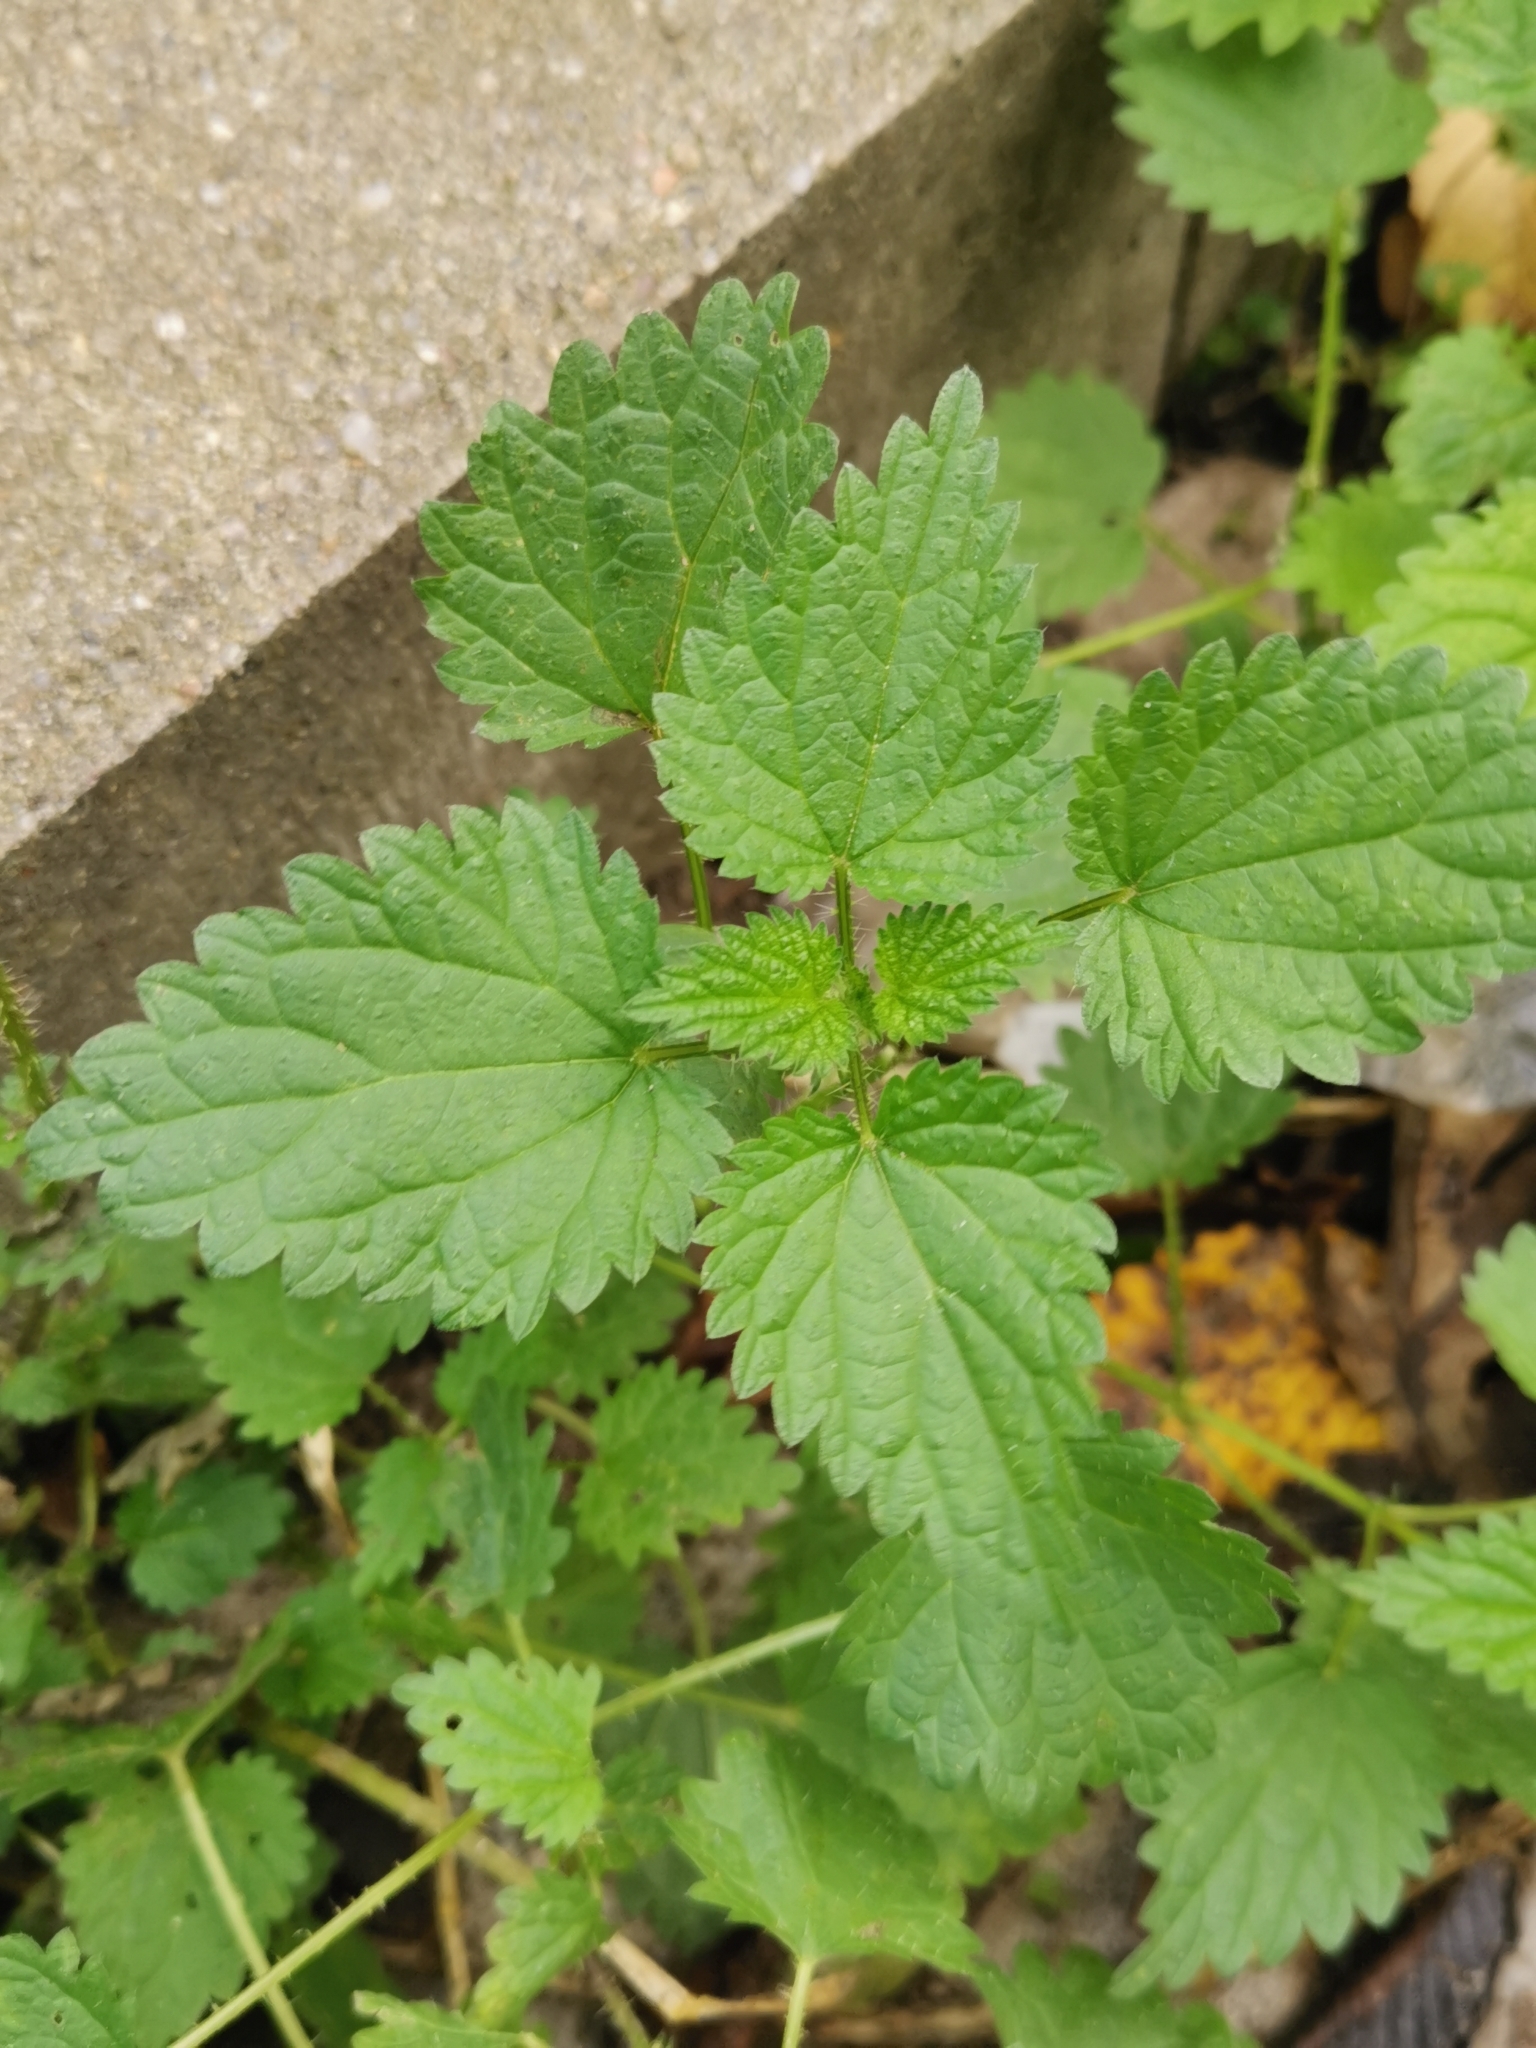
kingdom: Plantae
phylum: Tracheophyta
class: Magnoliopsida
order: Rosales
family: Urticaceae
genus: Urtica
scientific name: Urtica dioica
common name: Common nettle
